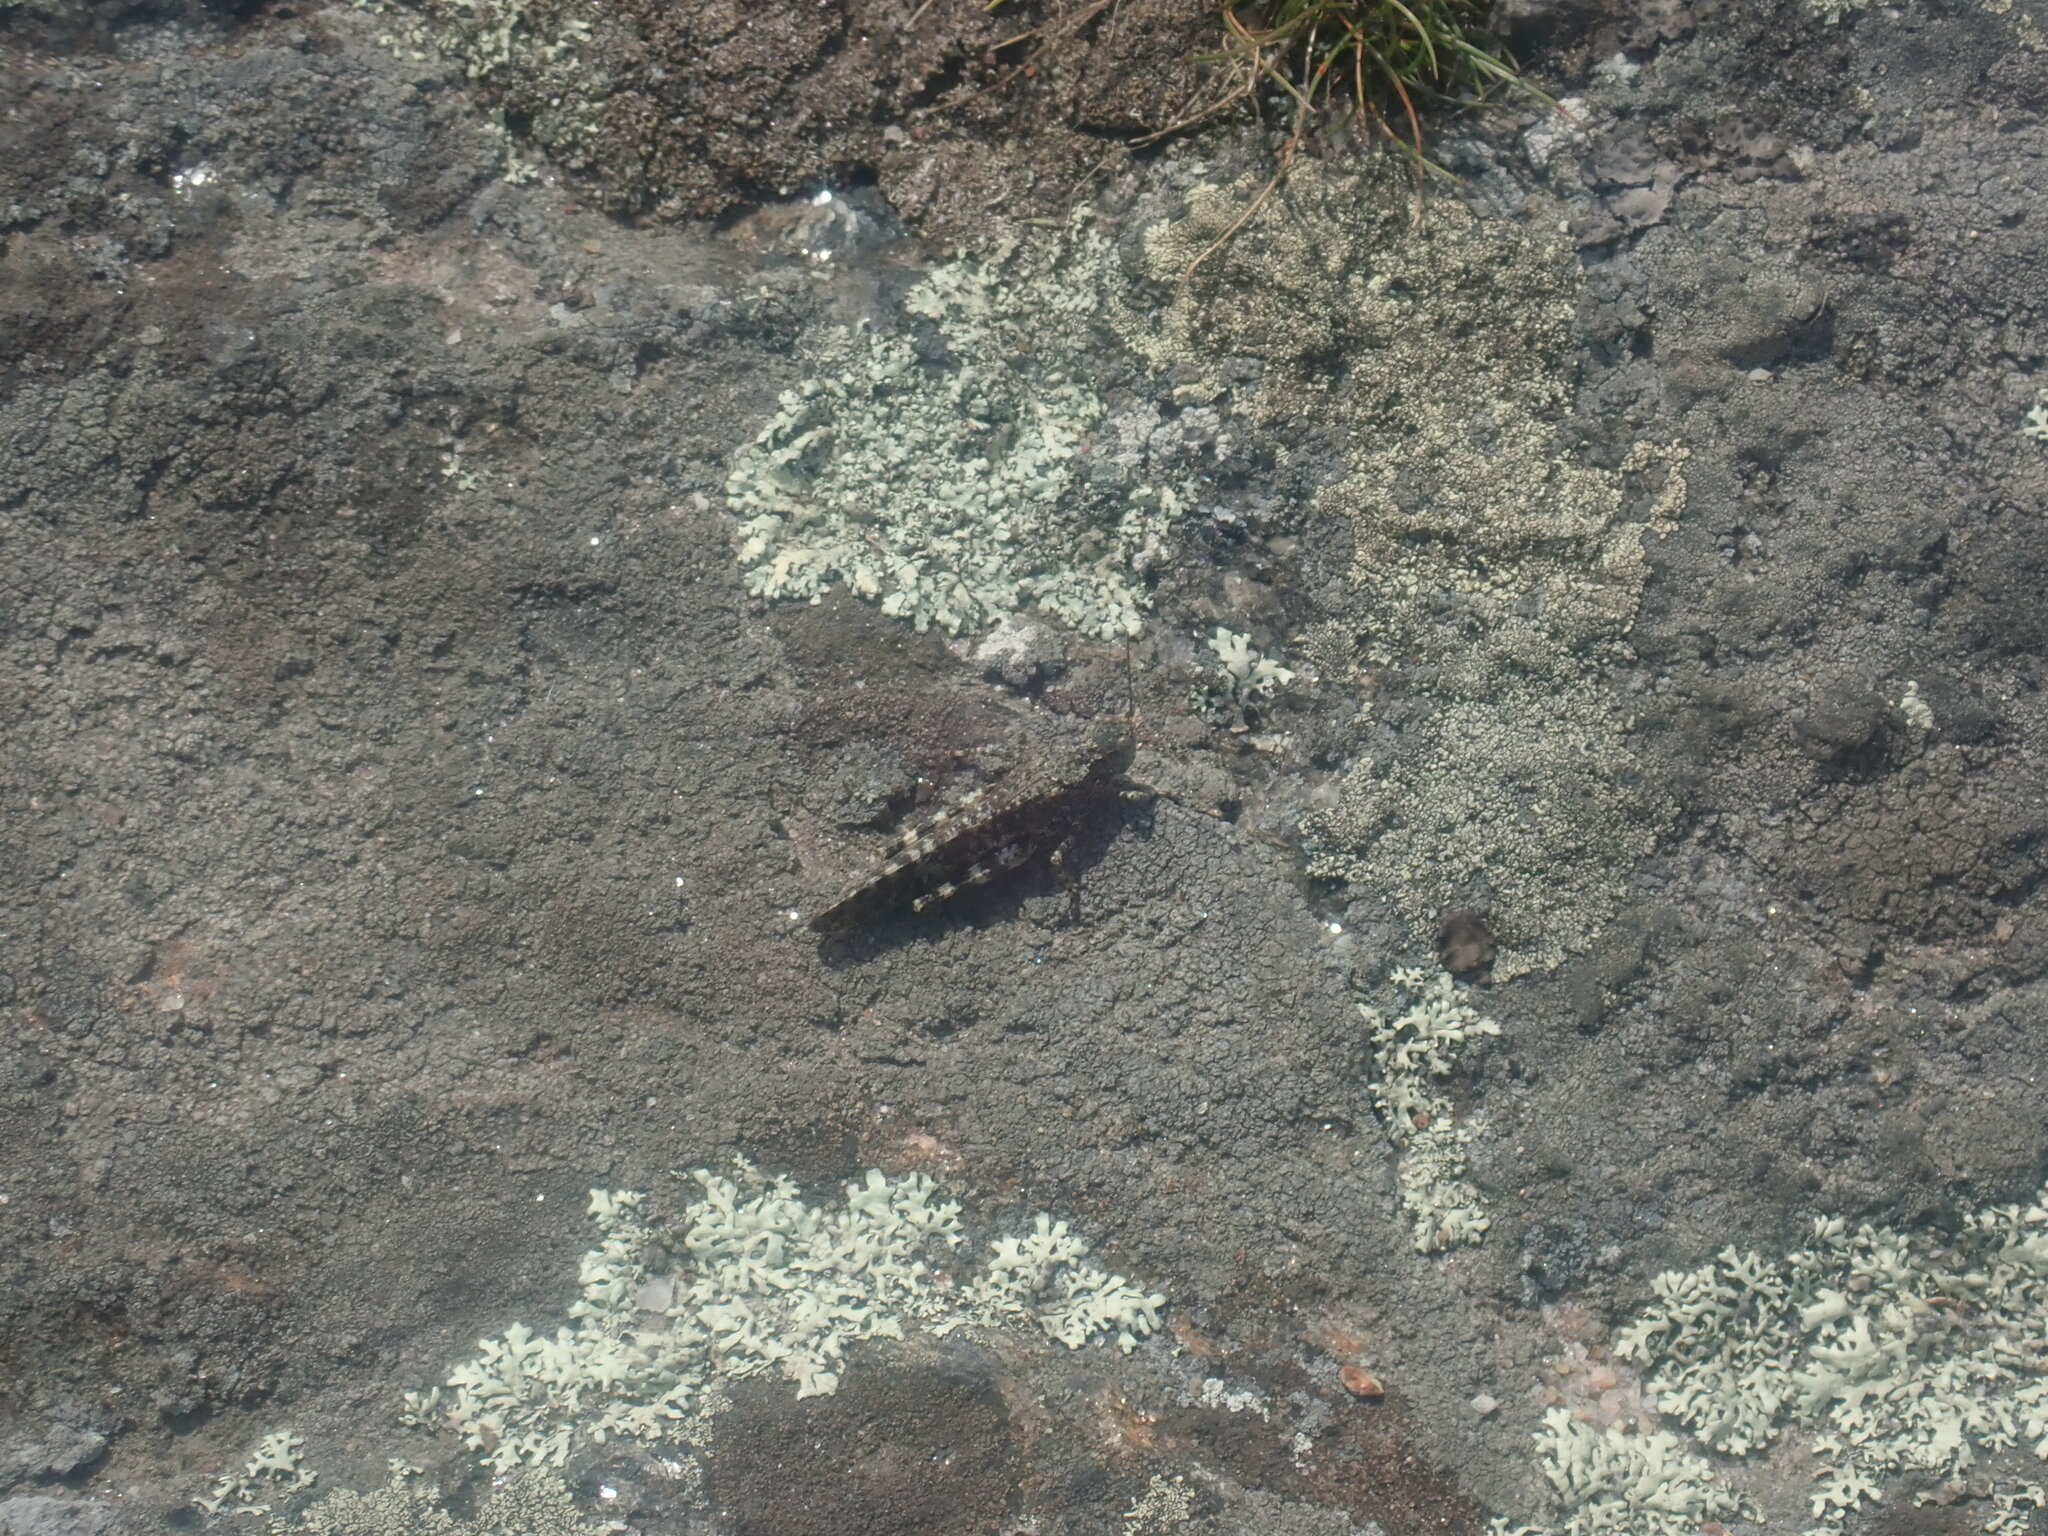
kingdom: Animalia
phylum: Arthropoda
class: Insecta
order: Orthoptera
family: Acrididae
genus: Trimerotropis
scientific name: Trimerotropis verruculata
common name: Crackling forest grasshopper
